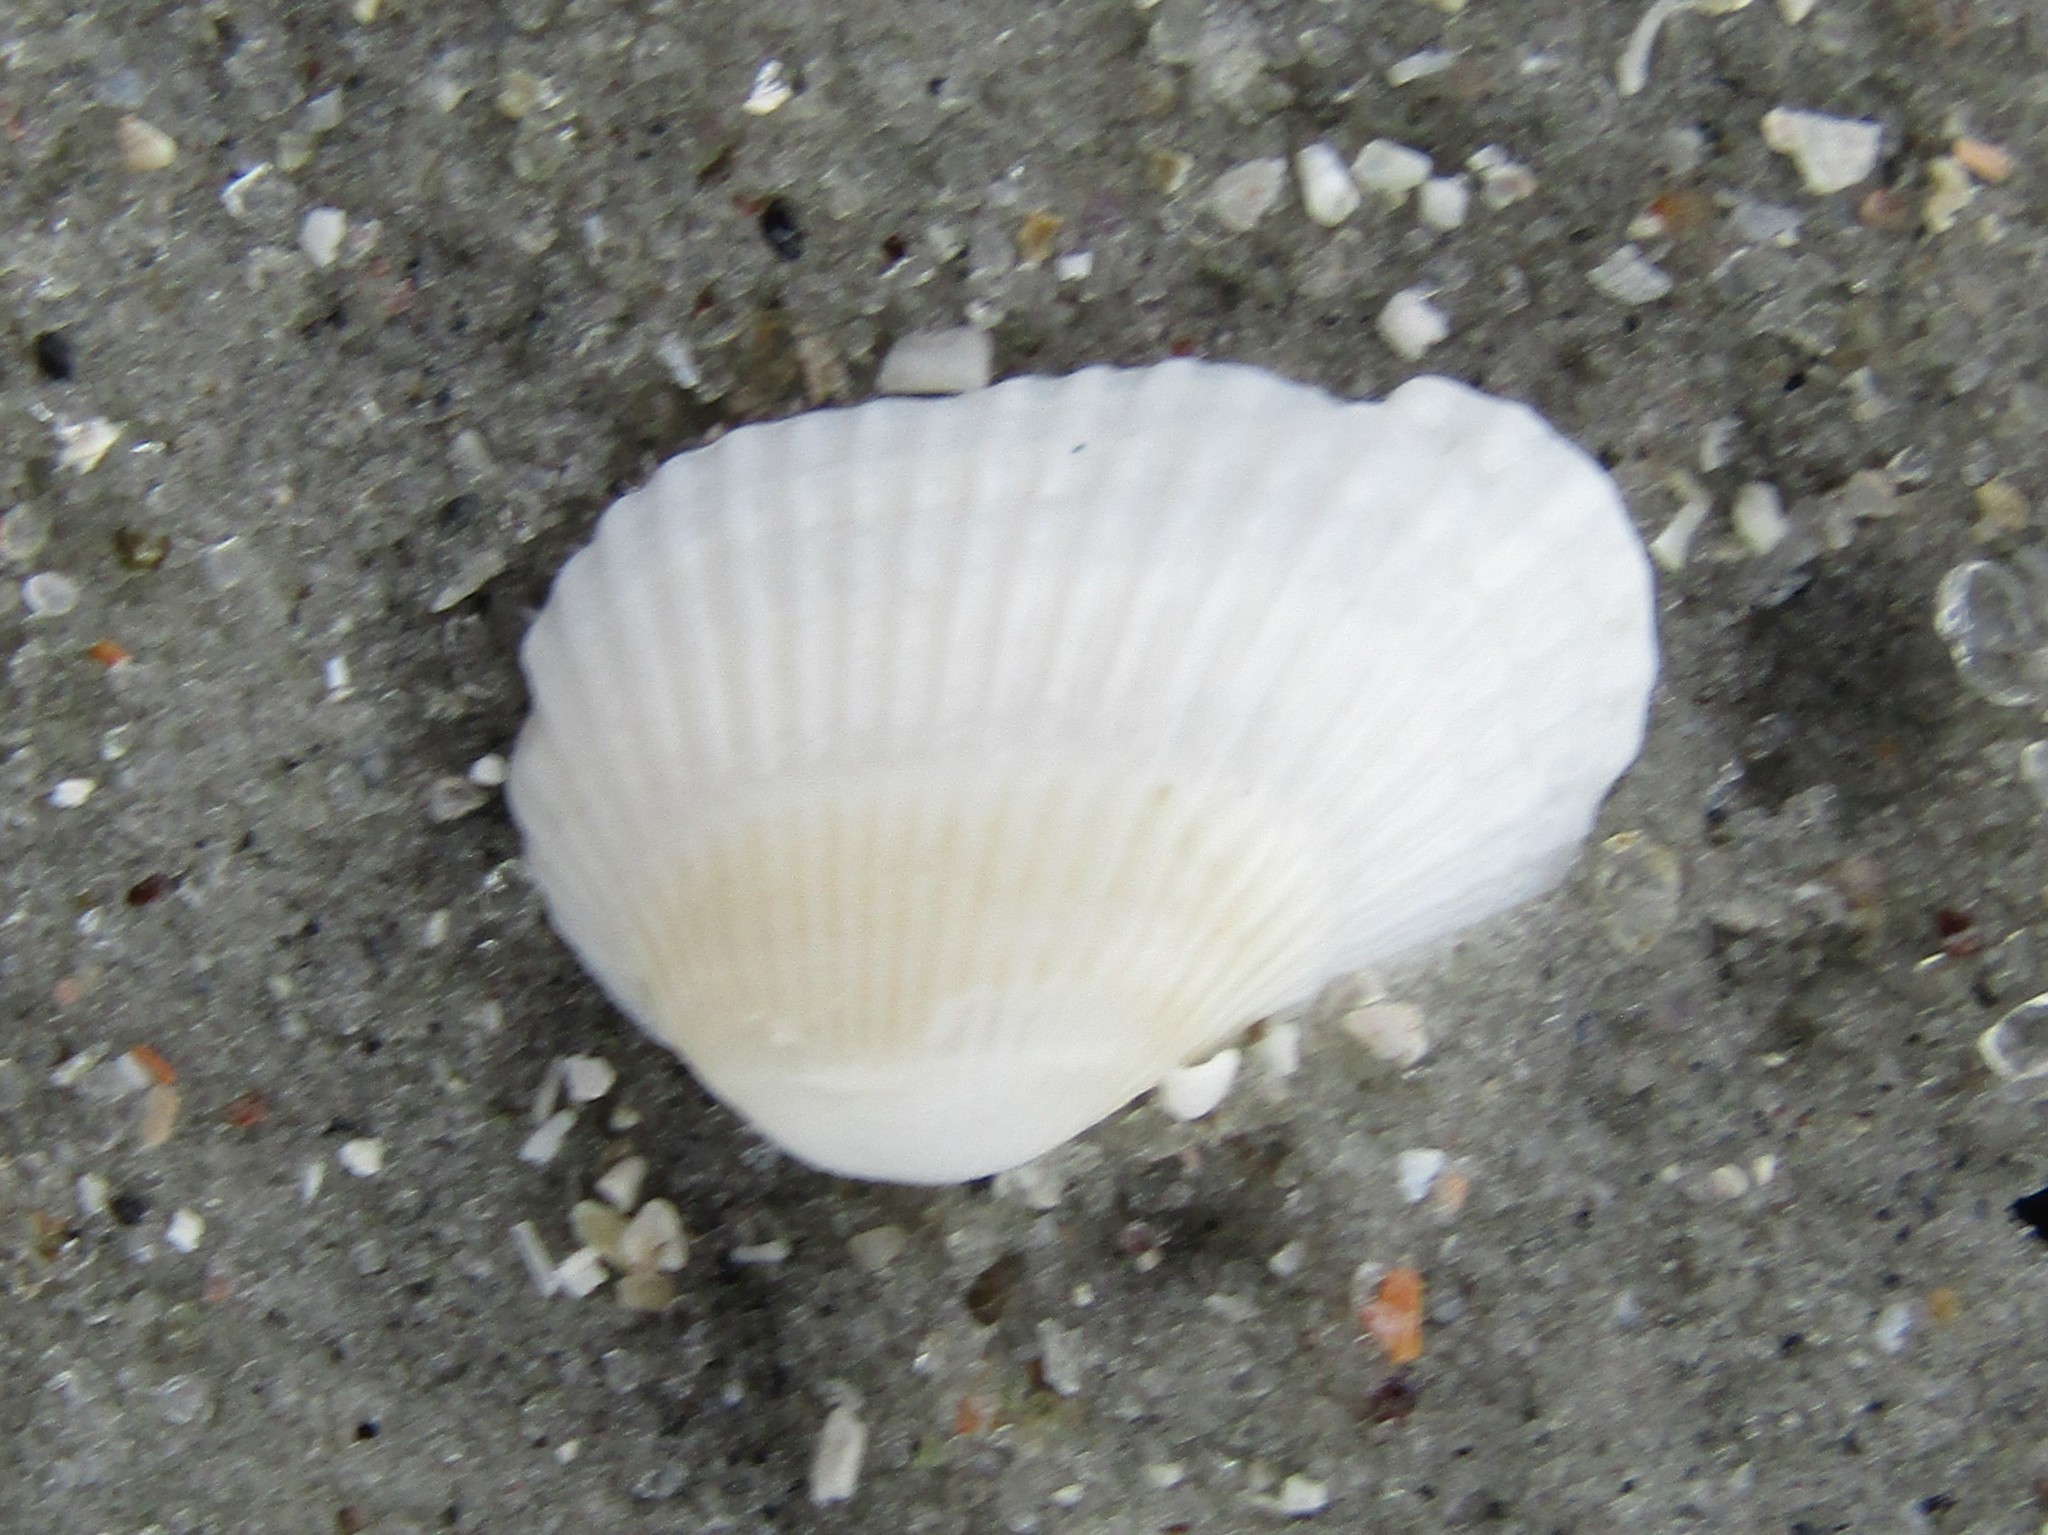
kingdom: Animalia
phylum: Mollusca
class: Bivalvia
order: Arcida
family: Arcidae
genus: Anadara
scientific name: Anadara transversa
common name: Transverse ark
